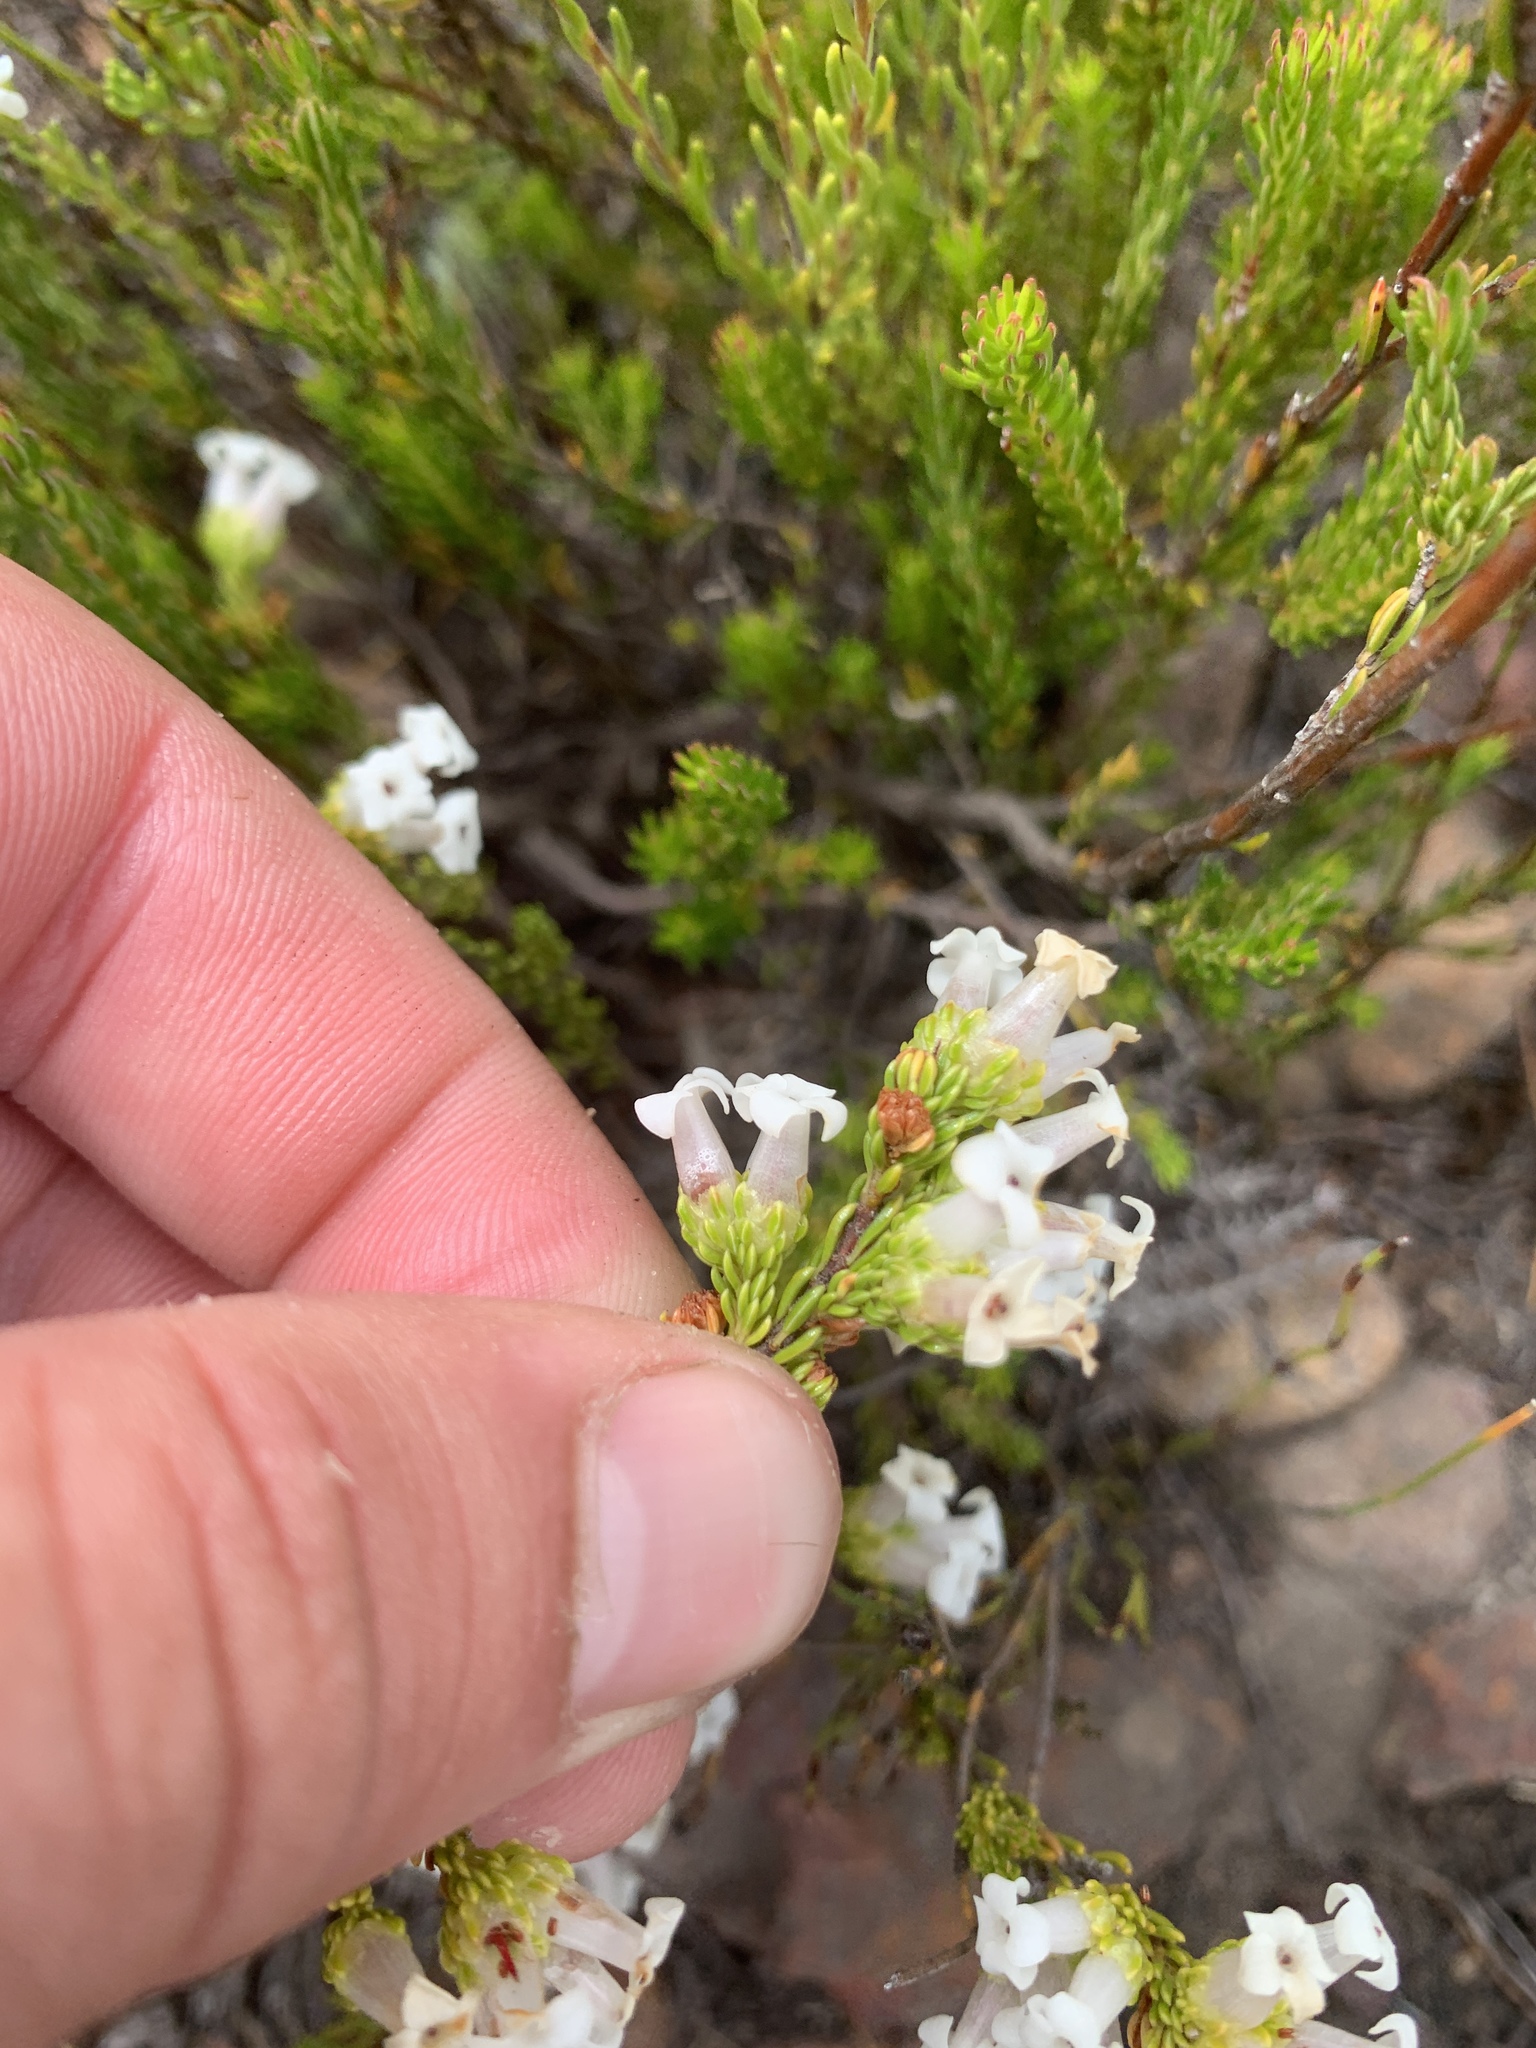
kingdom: Plantae
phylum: Tracheophyta
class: Magnoliopsida
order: Ericales
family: Ericaceae
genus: Erica
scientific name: Erica denticulata
